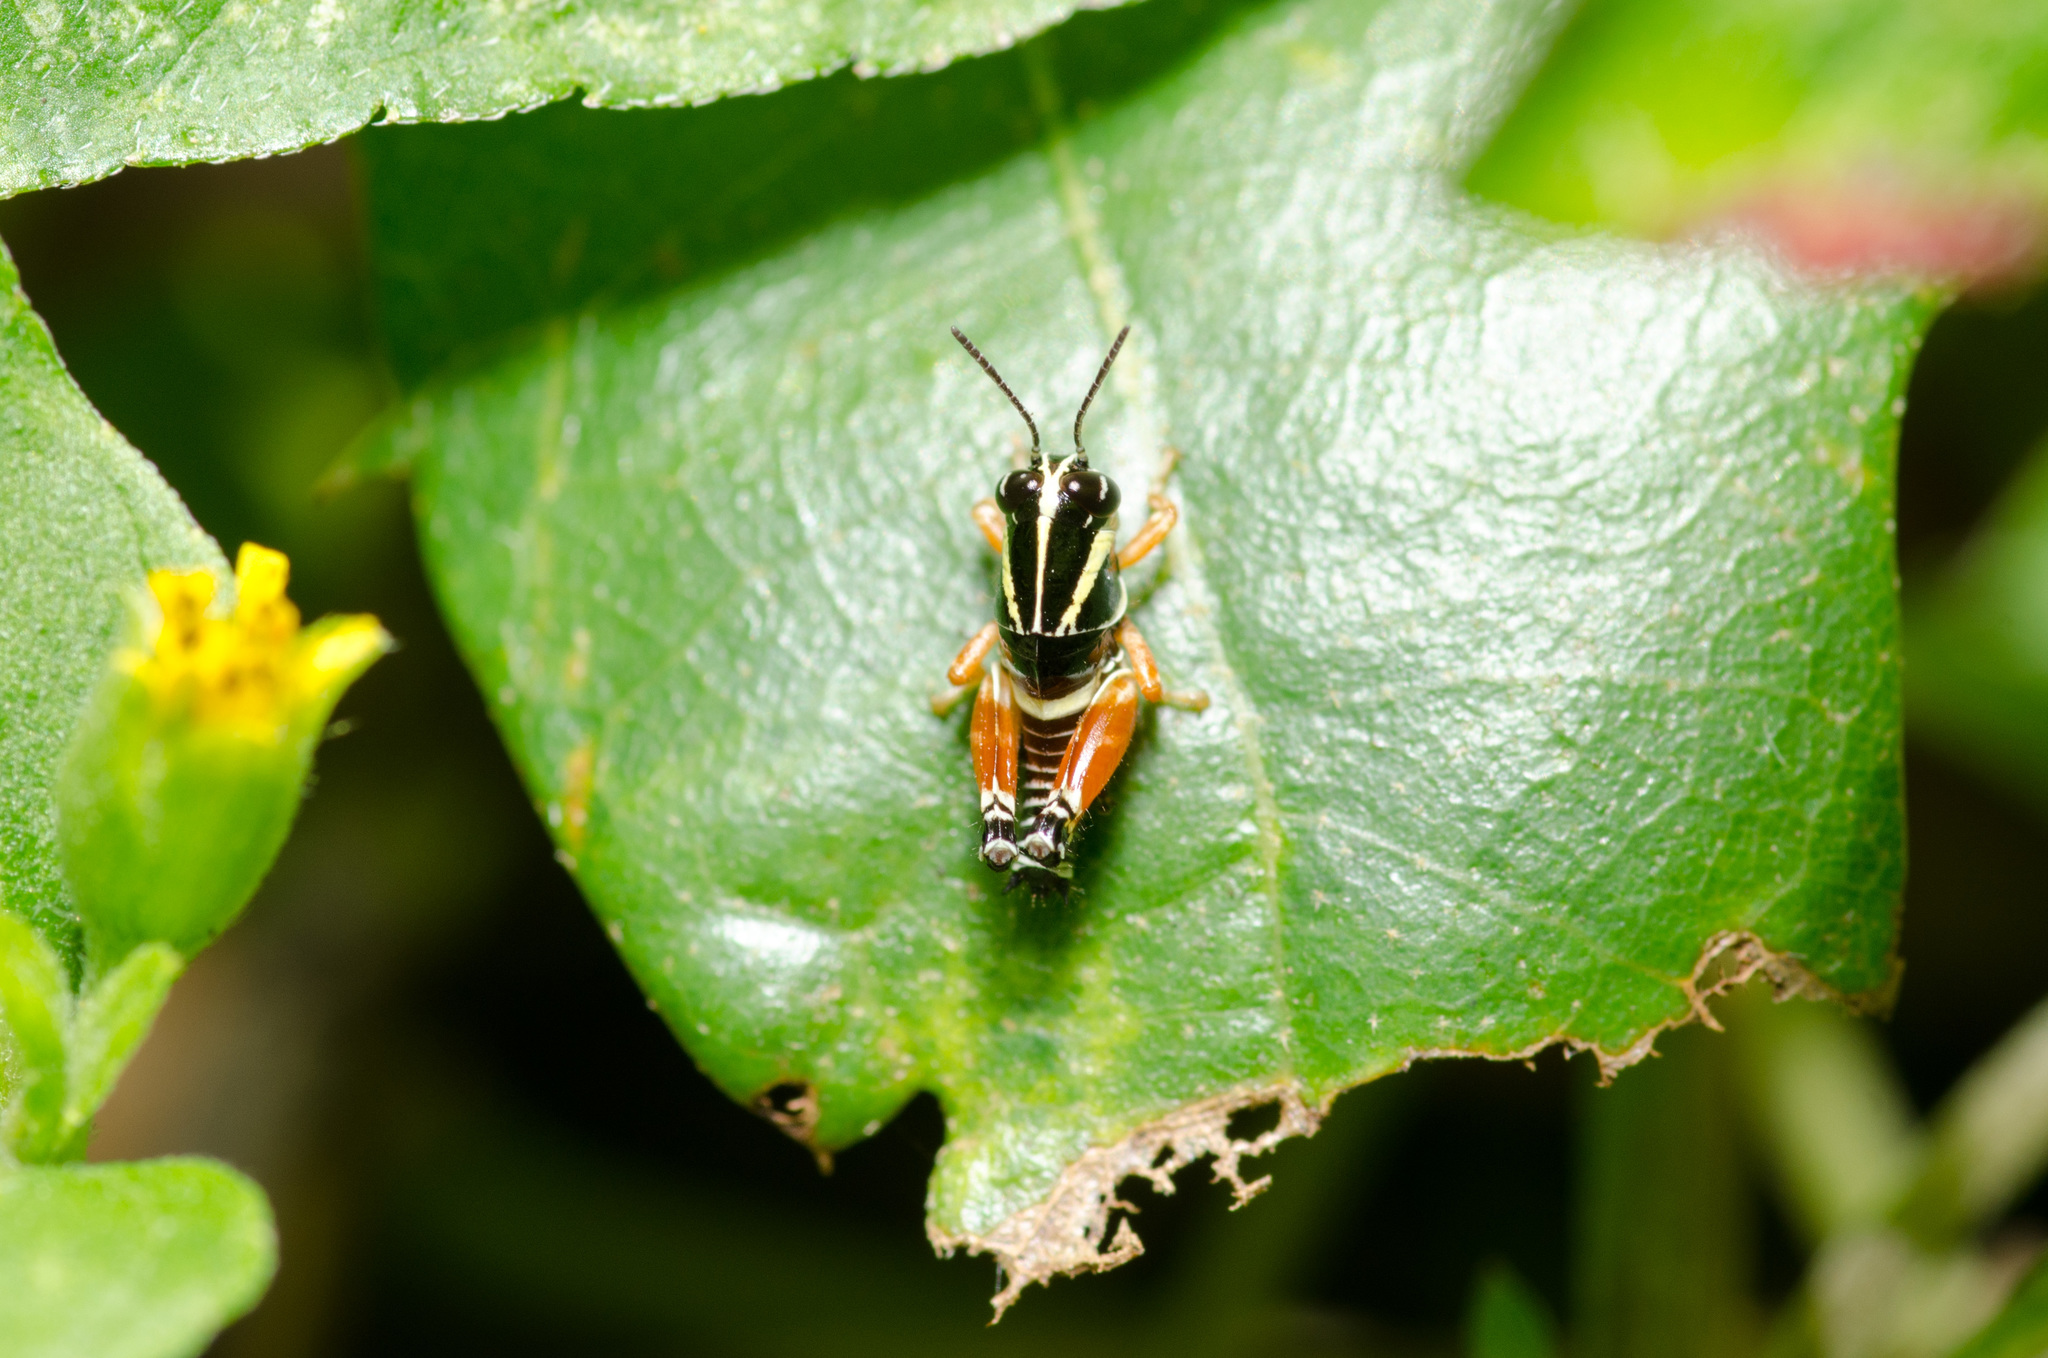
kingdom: Animalia
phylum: Arthropoda
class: Insecta
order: Orthoptera
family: Acrididae
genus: Aidemona
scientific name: Aidemona azteca
